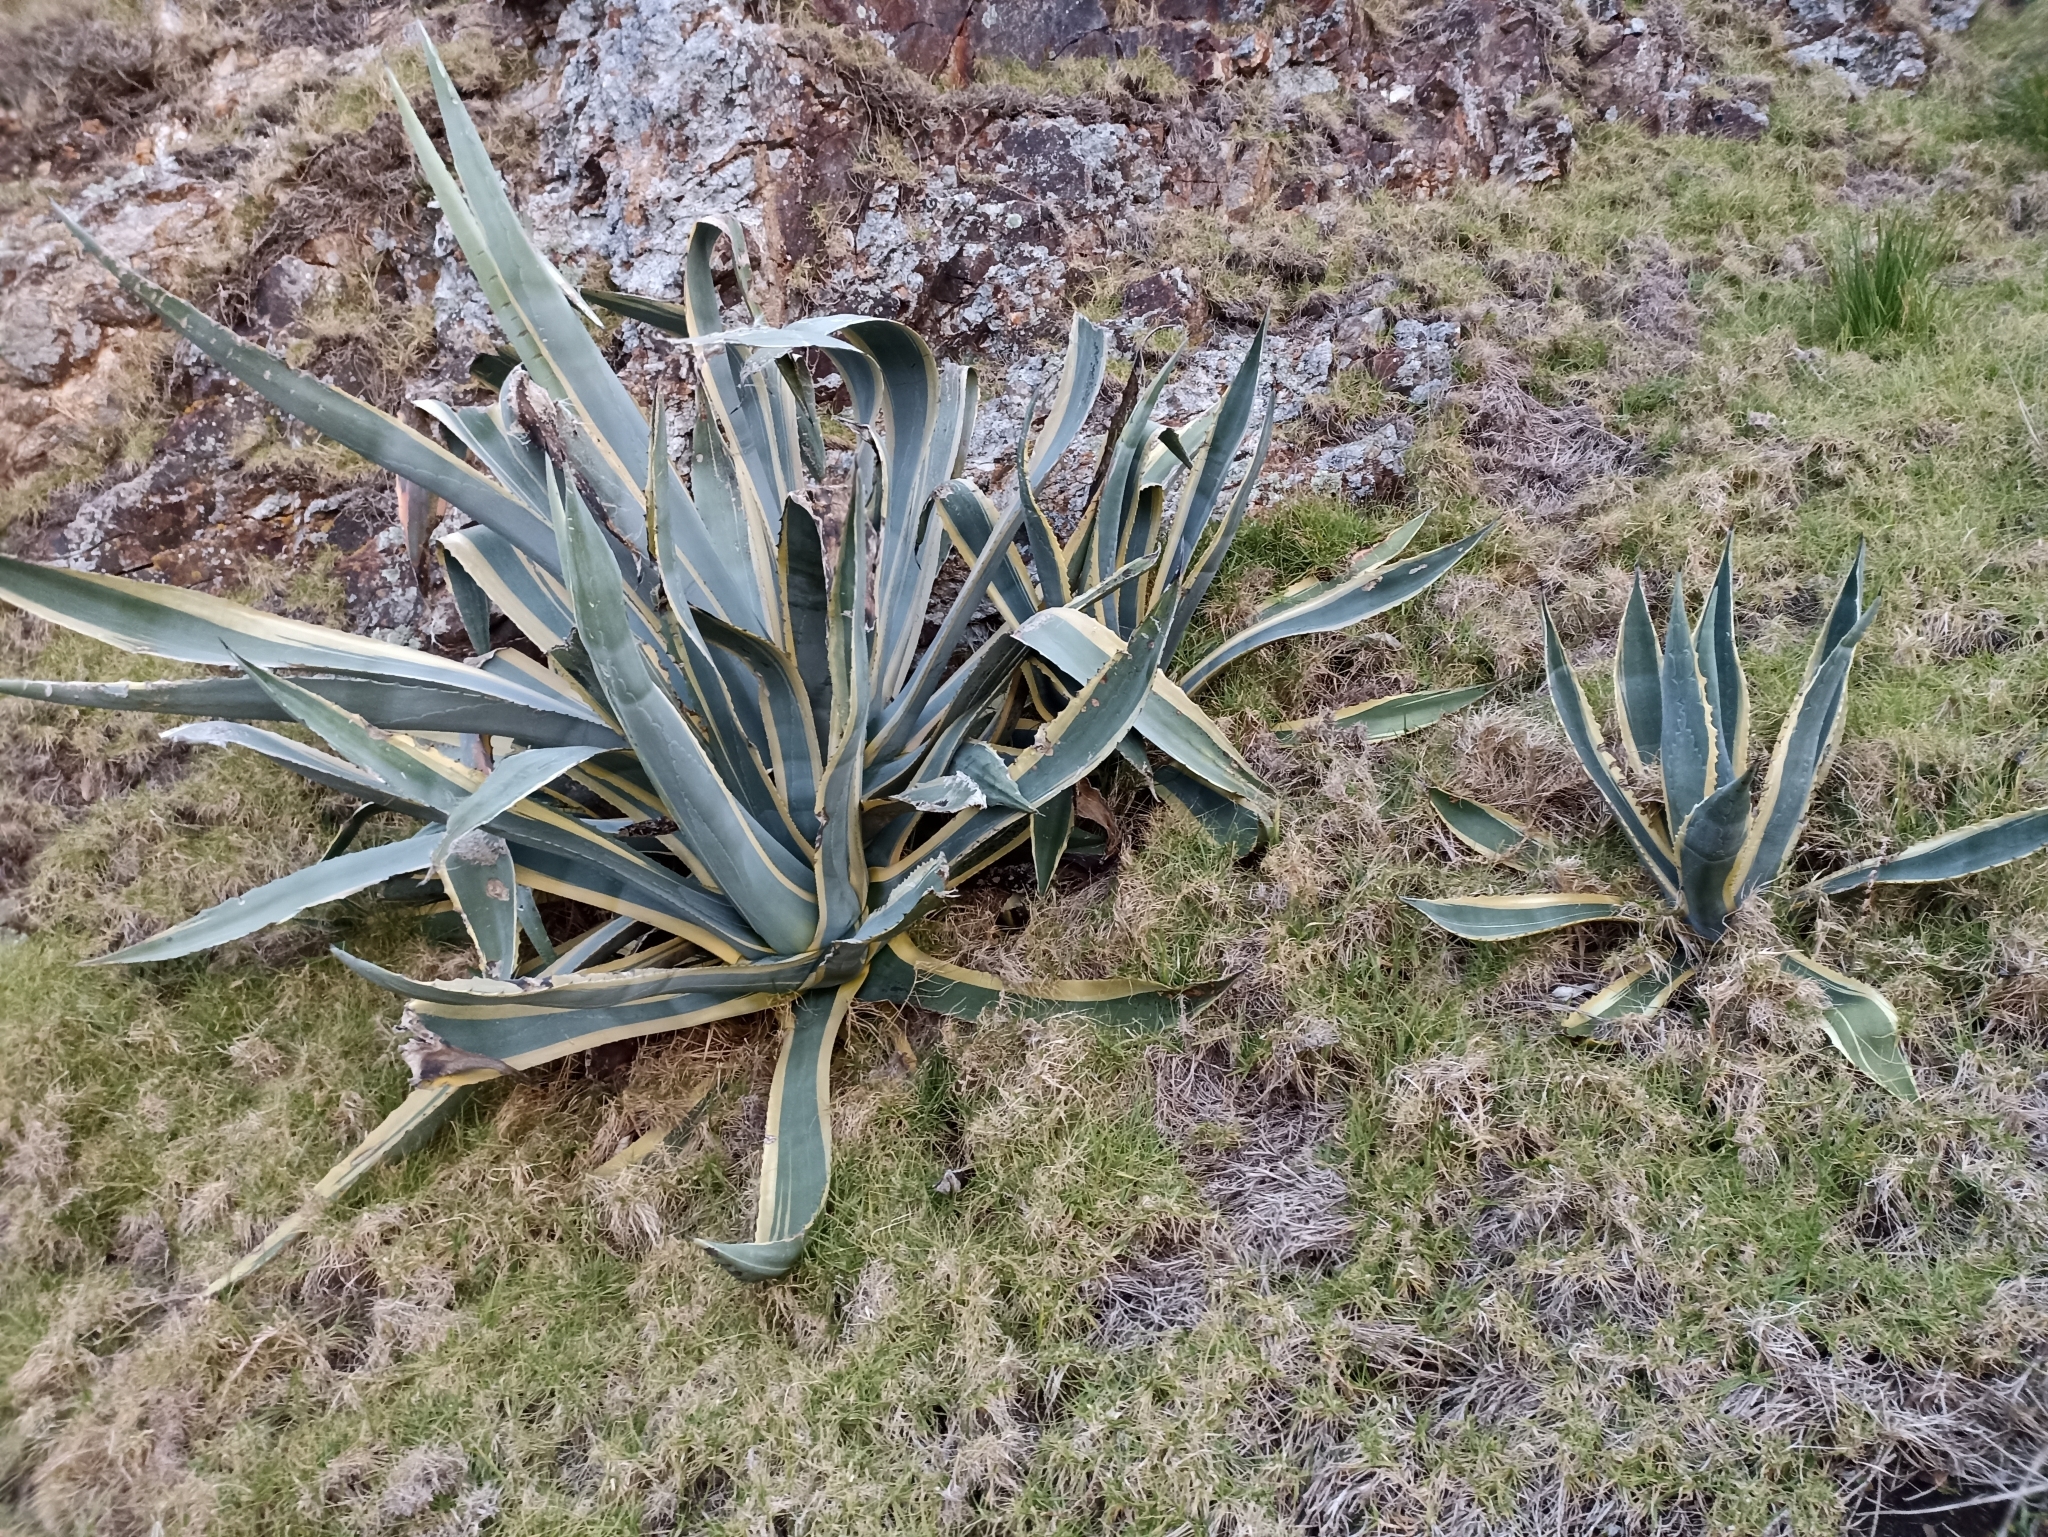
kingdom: Plantae
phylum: Tracheophyta
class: Liliopsida
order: Asparagales
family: Asparagaceae
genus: Agave
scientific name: Agave americana
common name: Centuryplant
